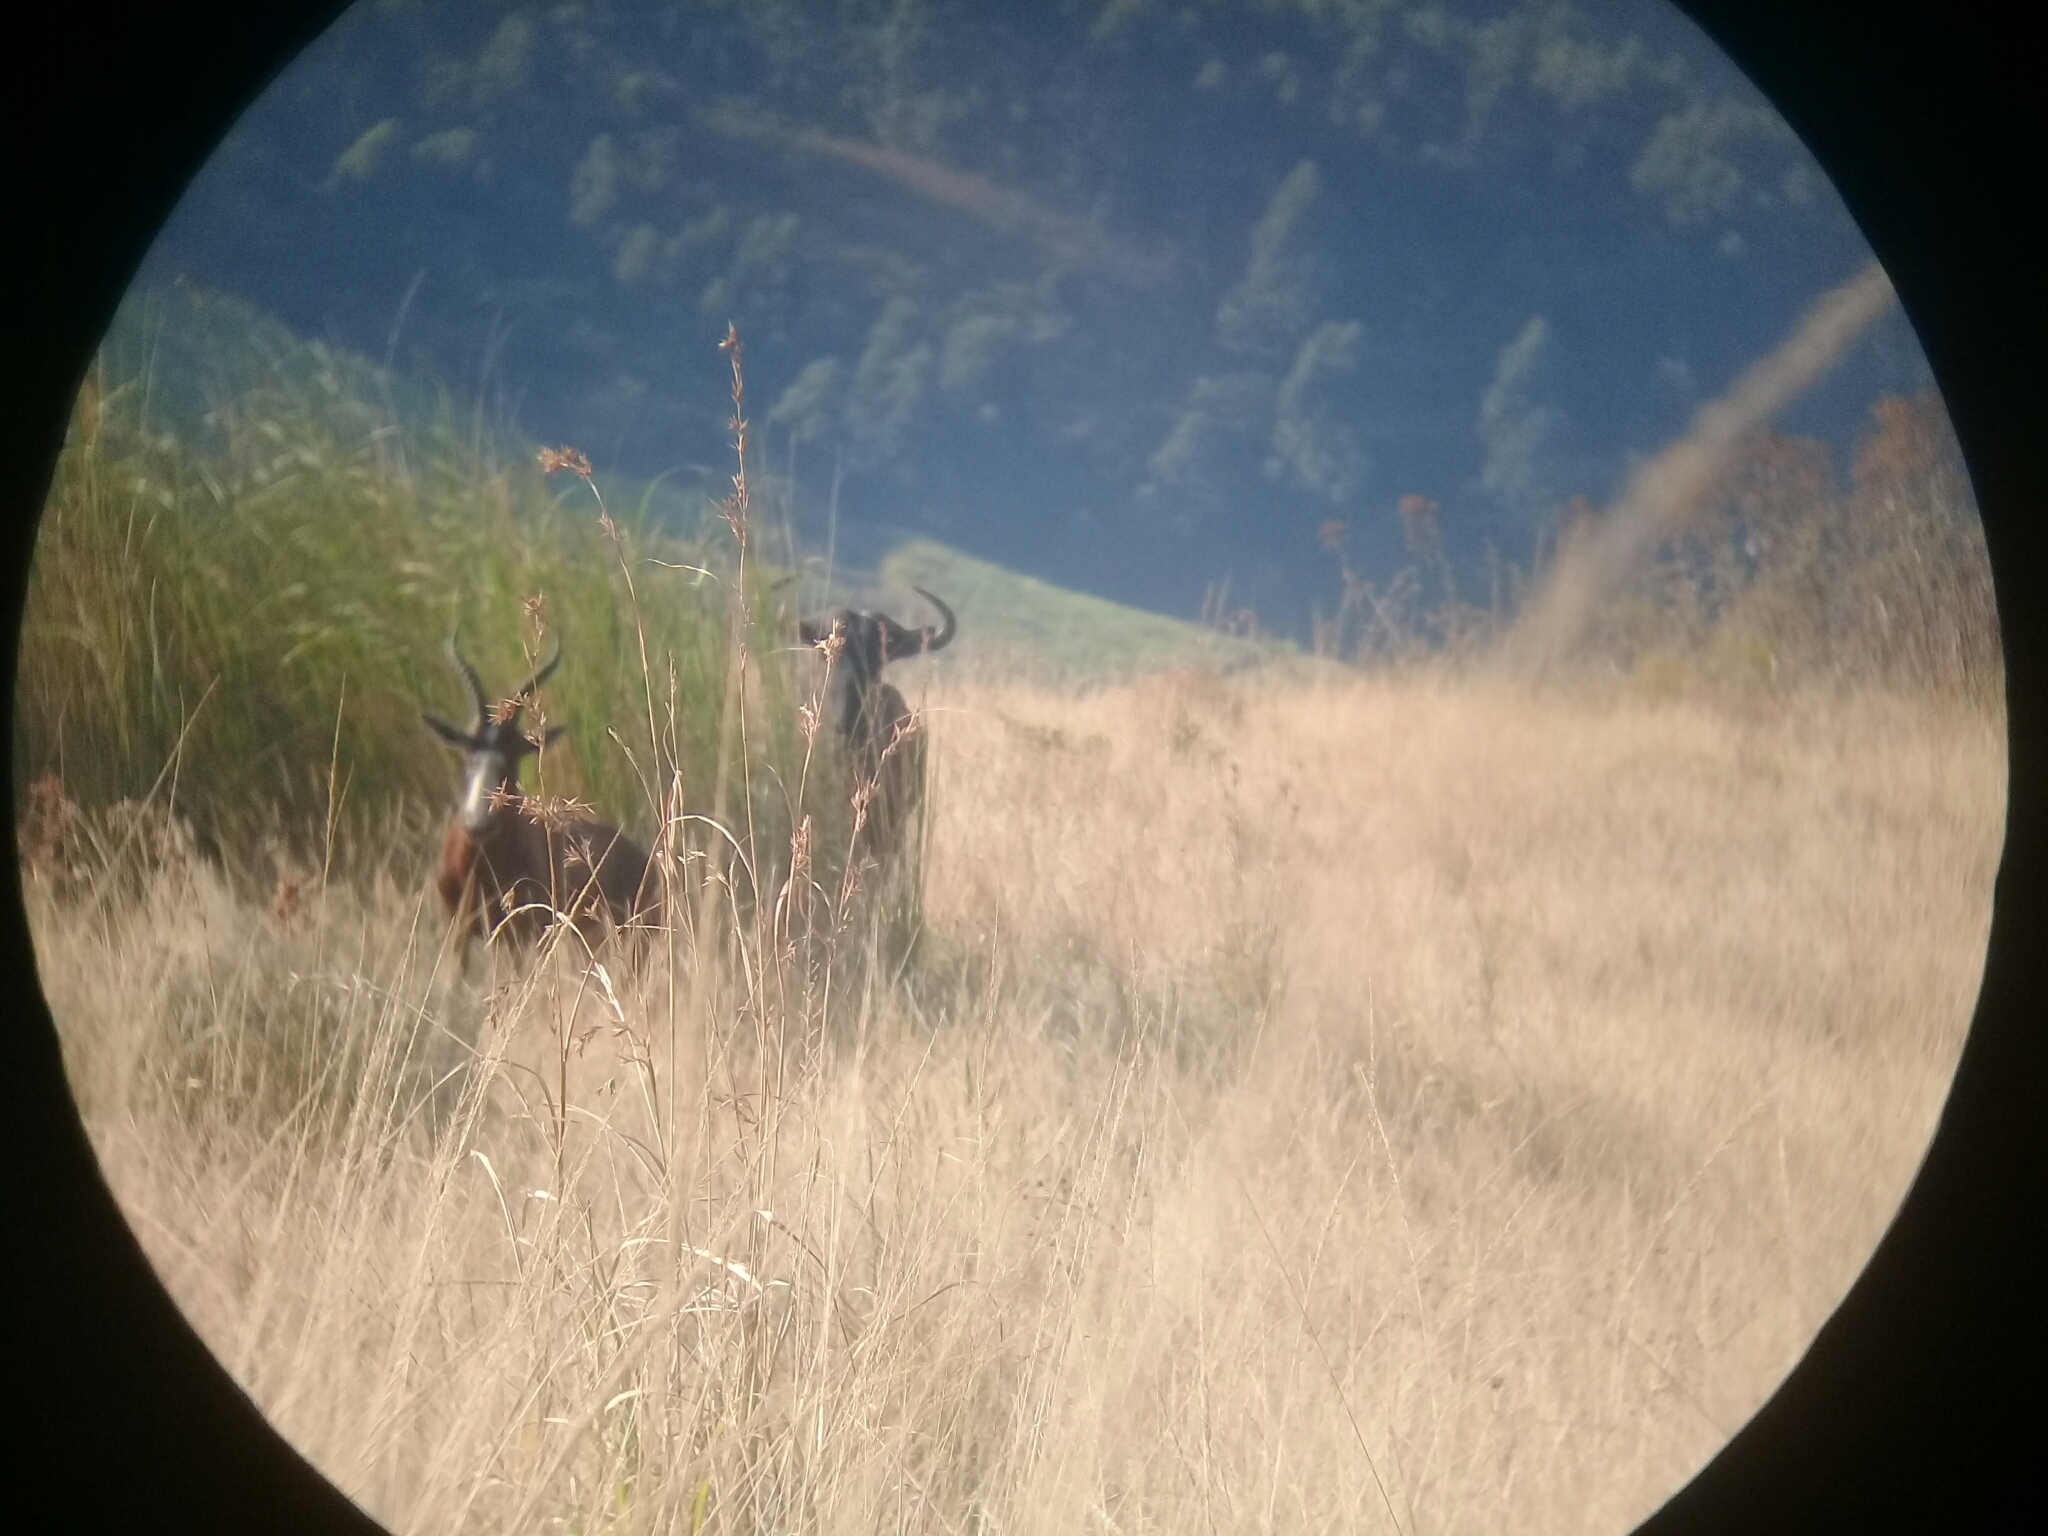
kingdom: Animalia
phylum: Chordata
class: Mammalia
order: Artiodactyla
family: Bovidae
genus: Damaliscus
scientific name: Damaliscus pygargus
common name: Bontebok
